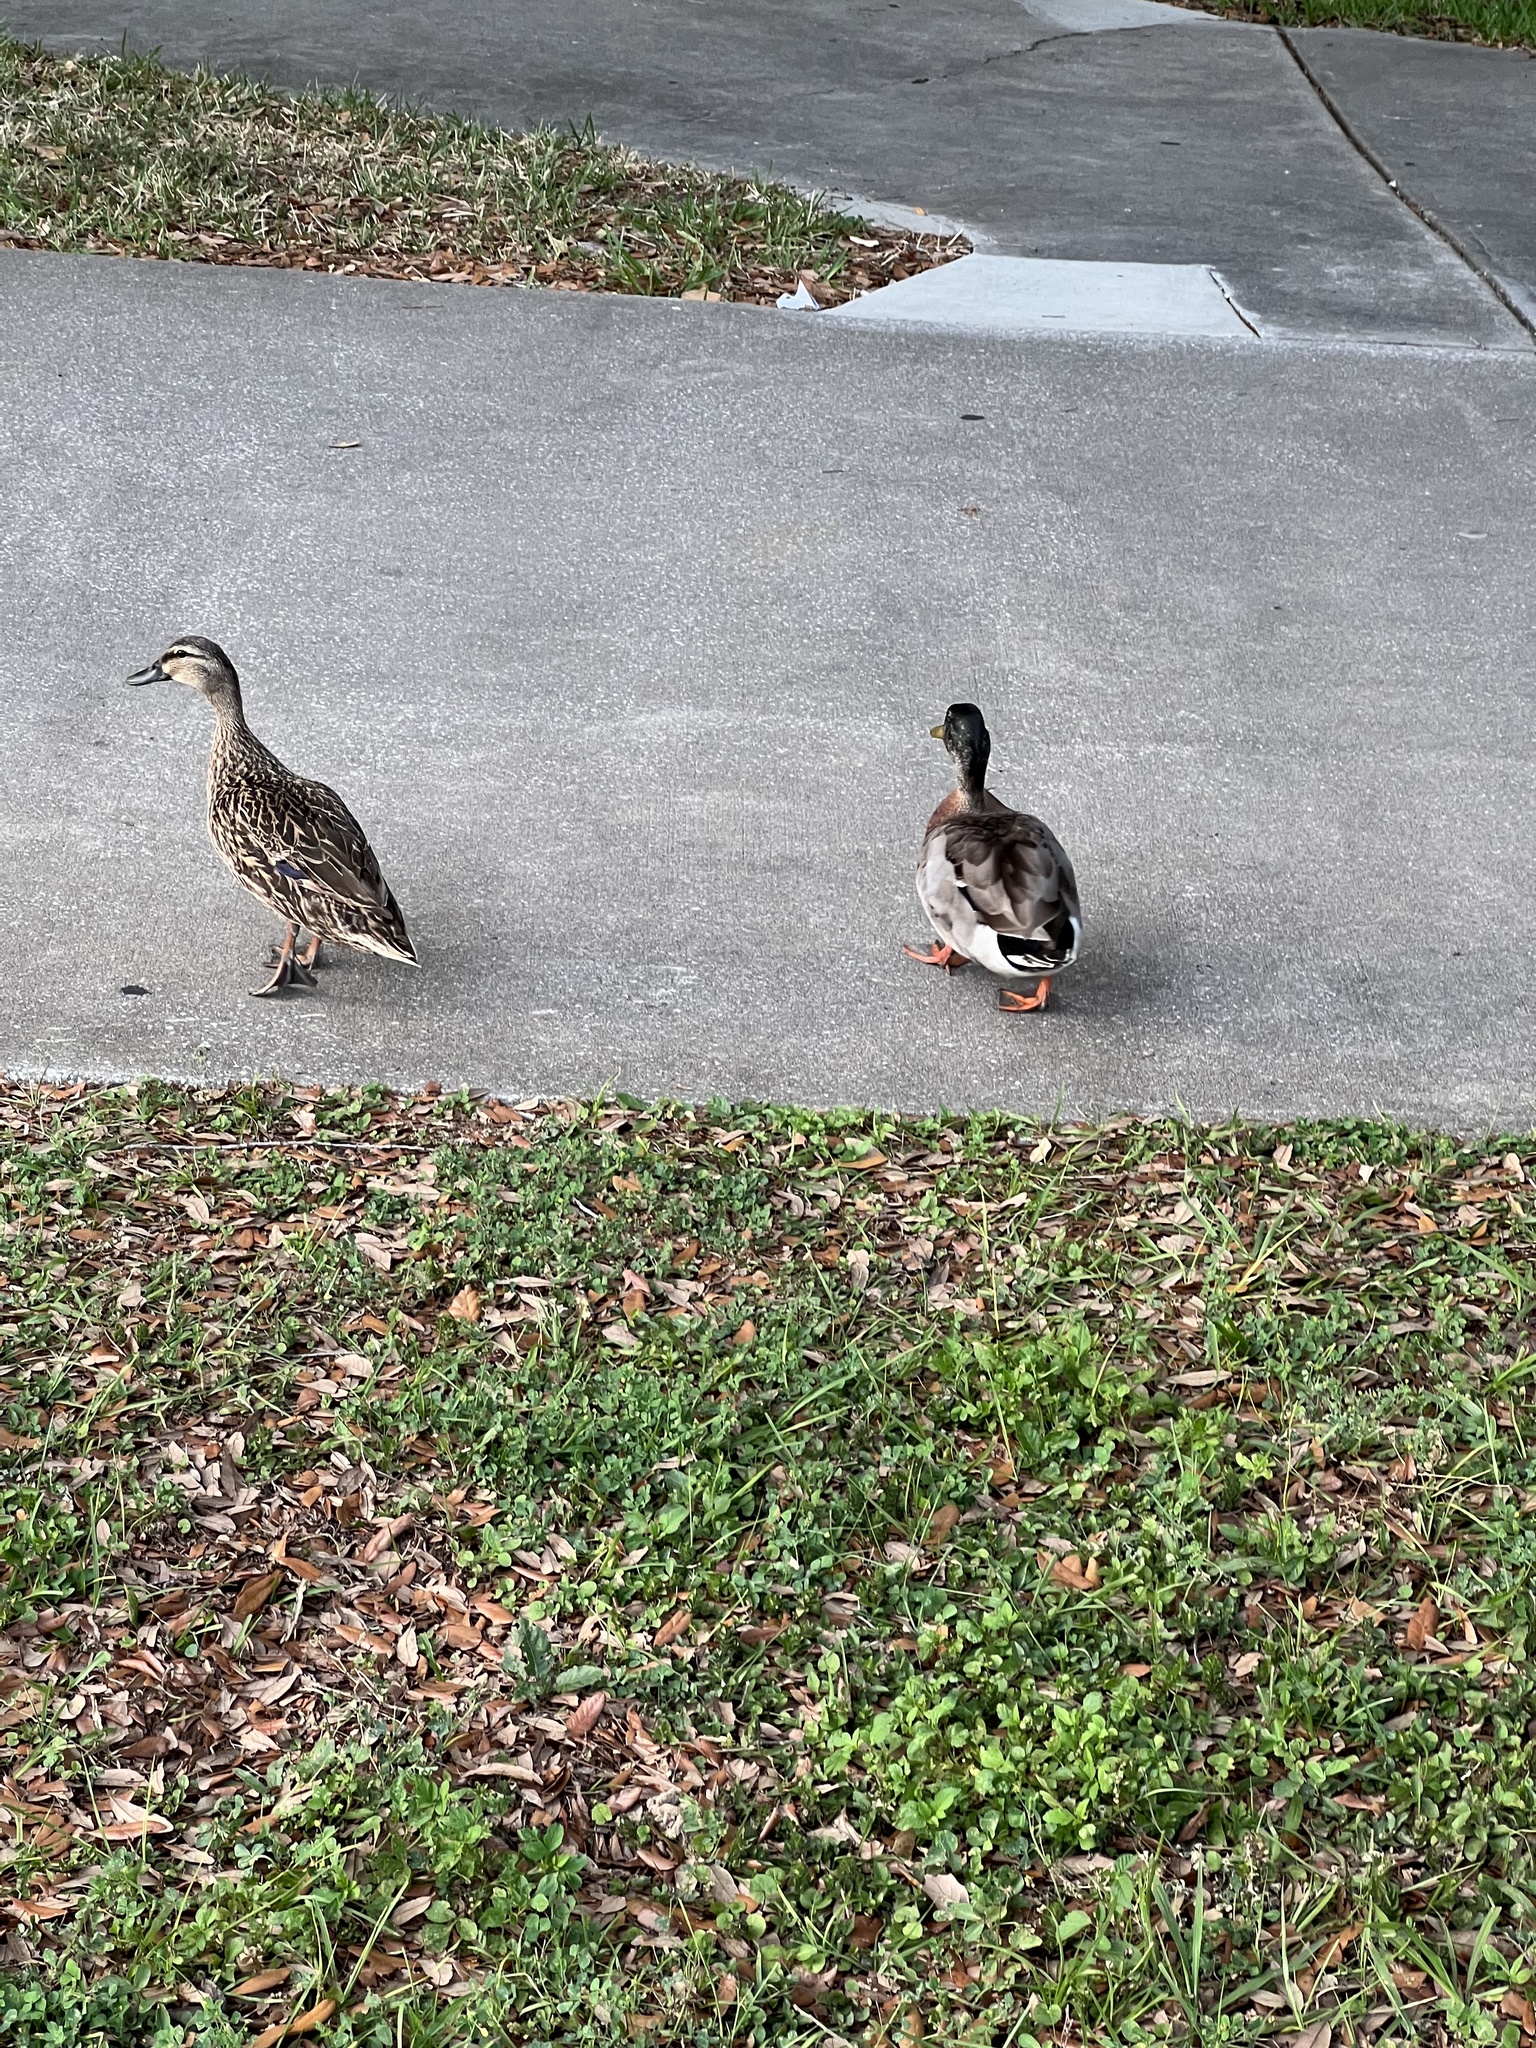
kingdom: Animalia
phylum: Chordata
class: Aves
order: Anseriformes
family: Anatidae
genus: Anas
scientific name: Anas platyrhynchos
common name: Mallard
